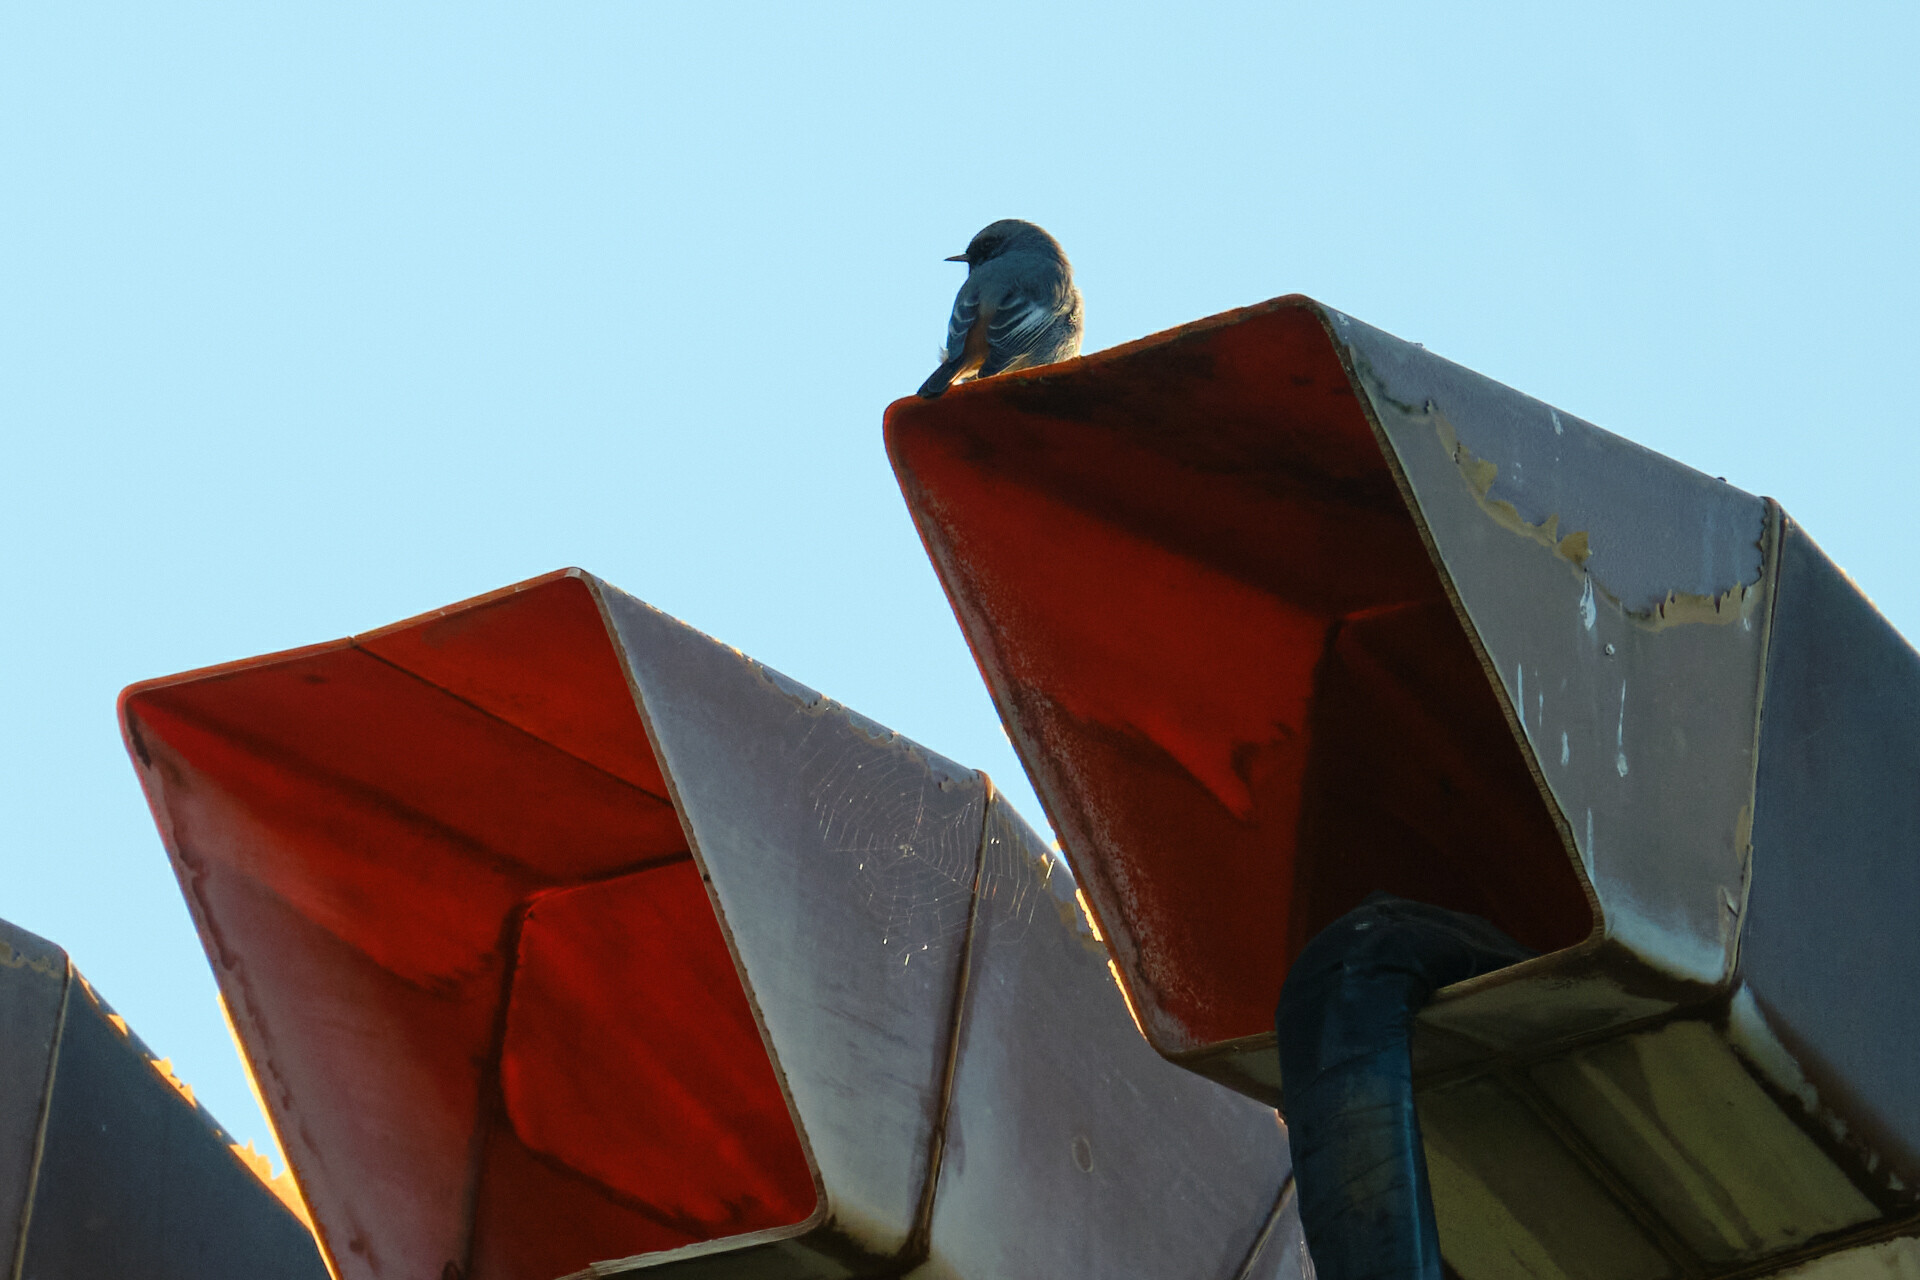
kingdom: Animalia
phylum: Chordata
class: Aves
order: Passeriformes
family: Muscicapidae
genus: Phoenicurus
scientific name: Phoenicurus ochruros
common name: Black redstart
